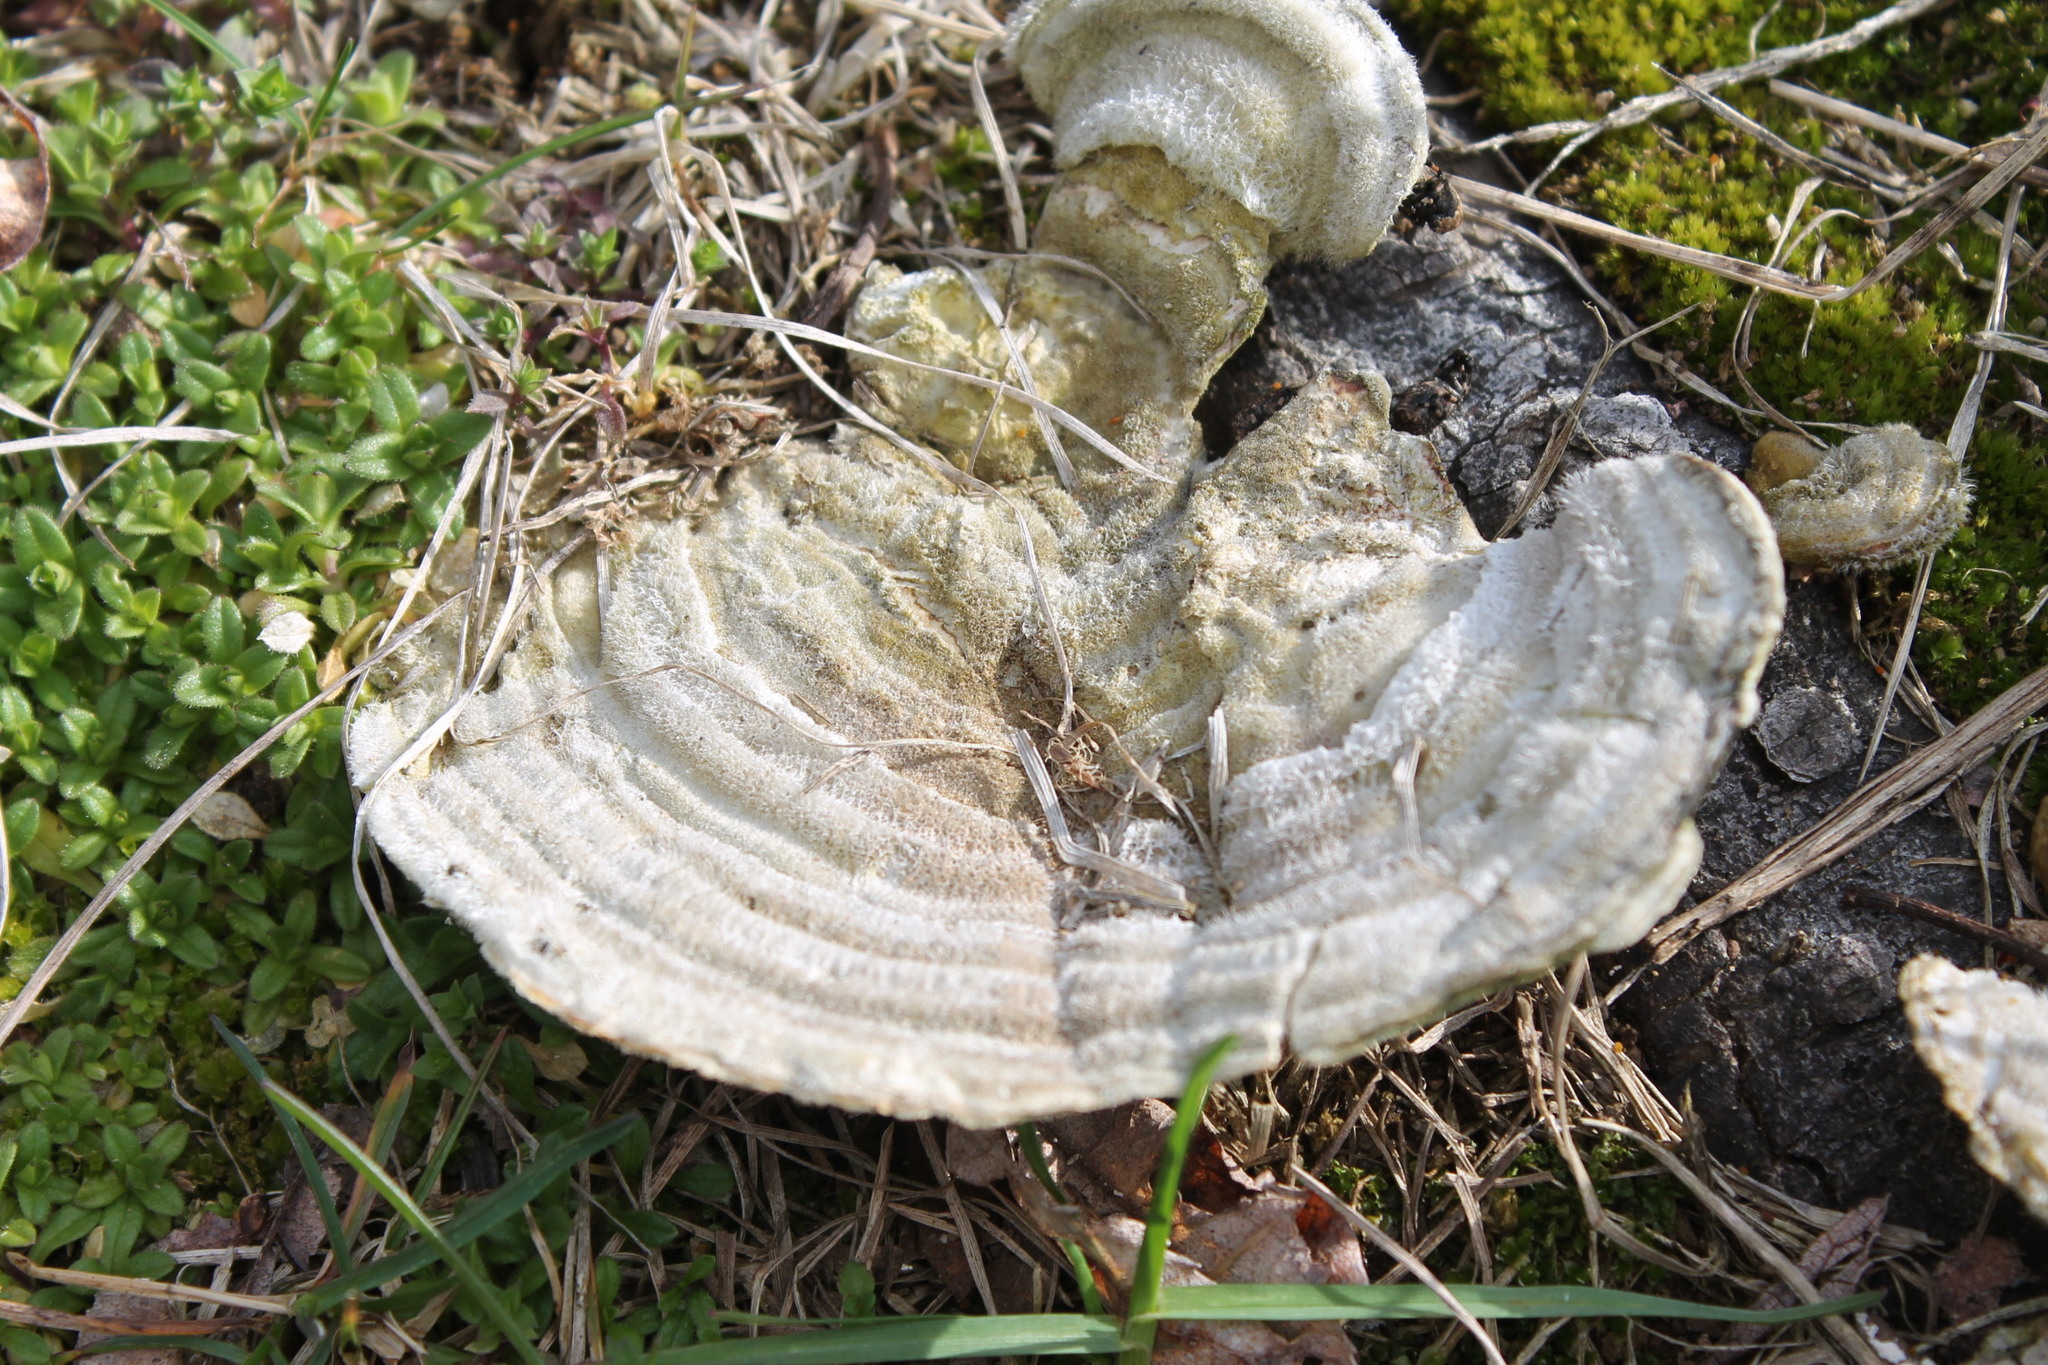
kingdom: Fungi
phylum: Basidiomycota
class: Agaricomycetes
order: Polyporales
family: Polyporaceae
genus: Trametes
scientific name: Trametes hirsuta
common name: Hairy bracket
